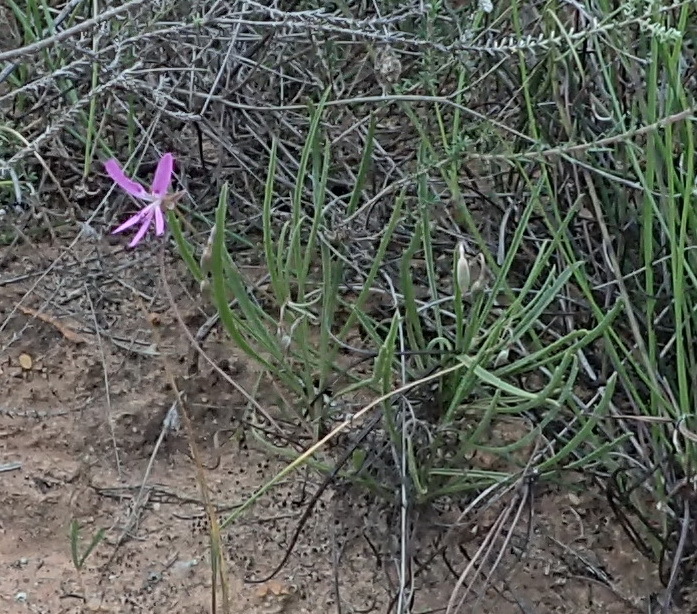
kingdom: Plantae
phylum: Tracheophyta
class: Magnoliopsida
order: Geraniales
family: Geraniaceae
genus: Pelargonium
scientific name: Pelargonium coronopifolium
